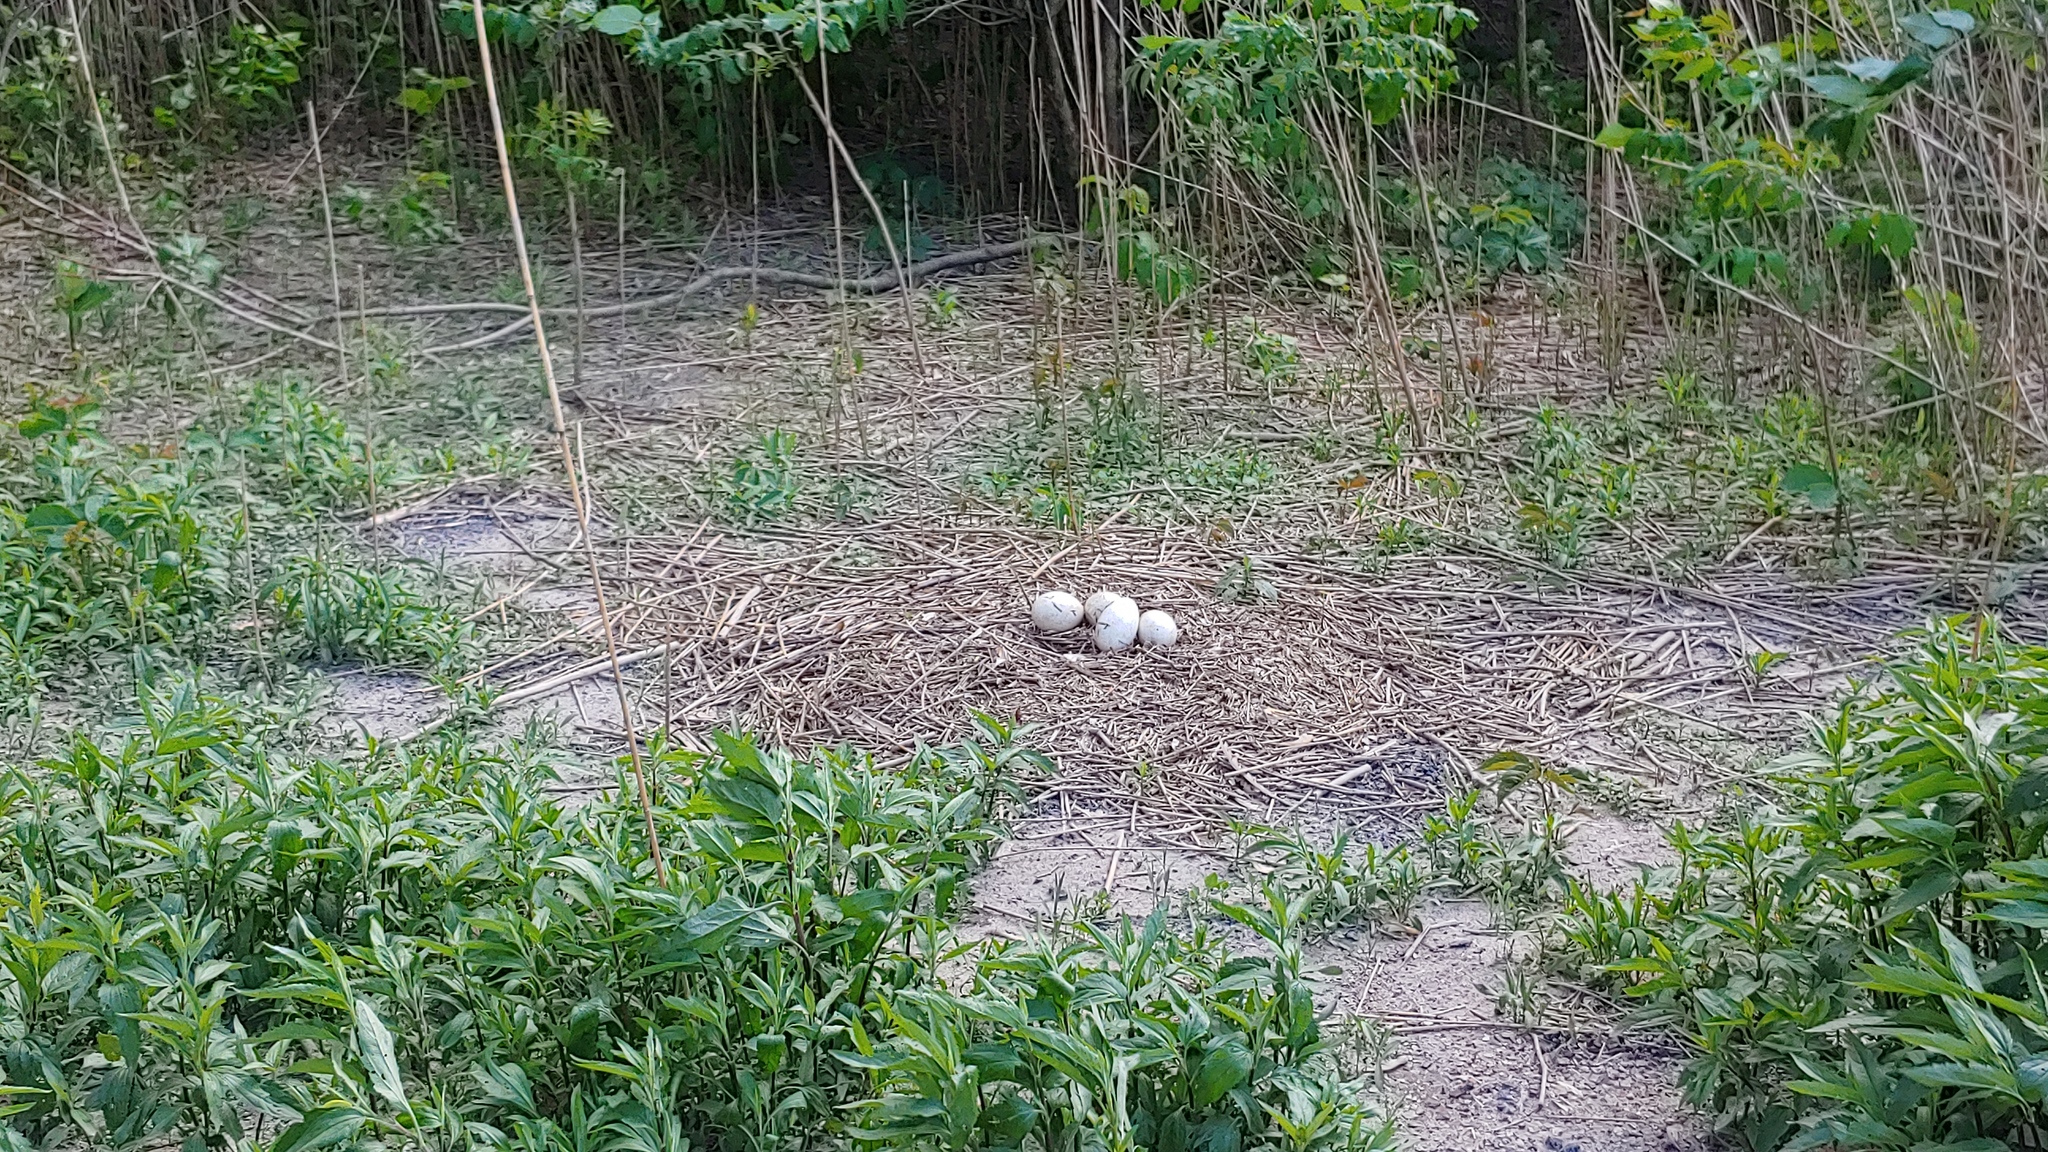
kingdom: Animalia
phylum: Chordata
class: Aves
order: Anseriformes
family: Anatidae
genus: Branta
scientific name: Branta canadensis
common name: Canada goose
